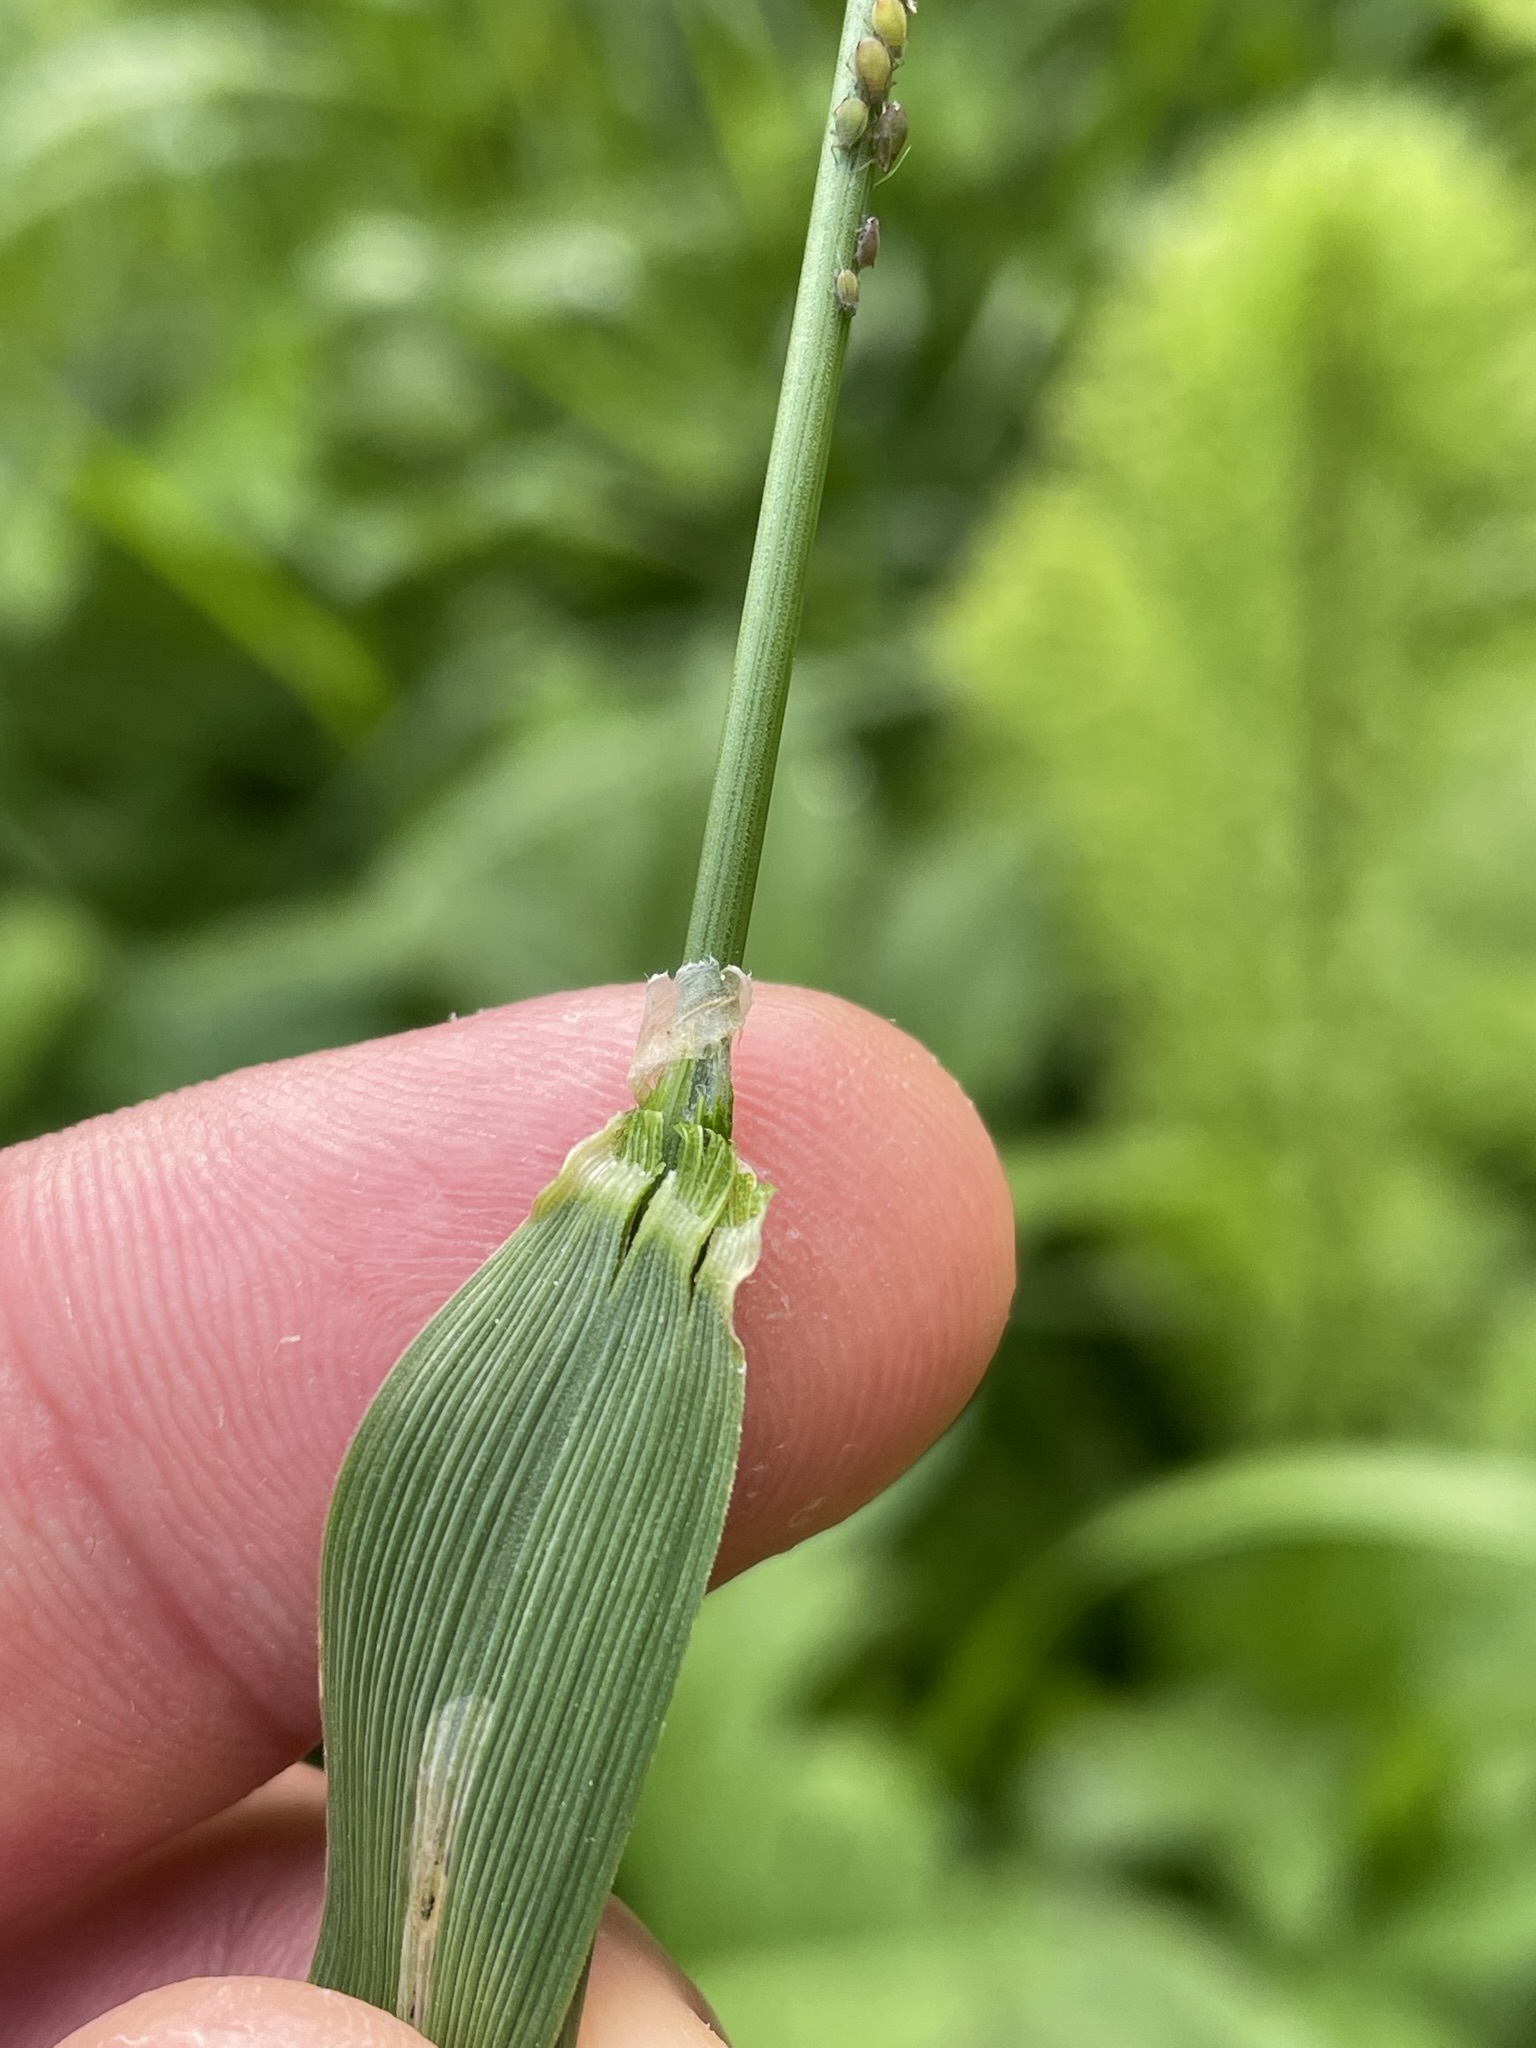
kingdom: Plantae
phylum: Tracheophyta
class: Liliopsida
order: Poales
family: Poaceae
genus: Alopecurus
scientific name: Alopecurus pratensis
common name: Meadow foxtail
